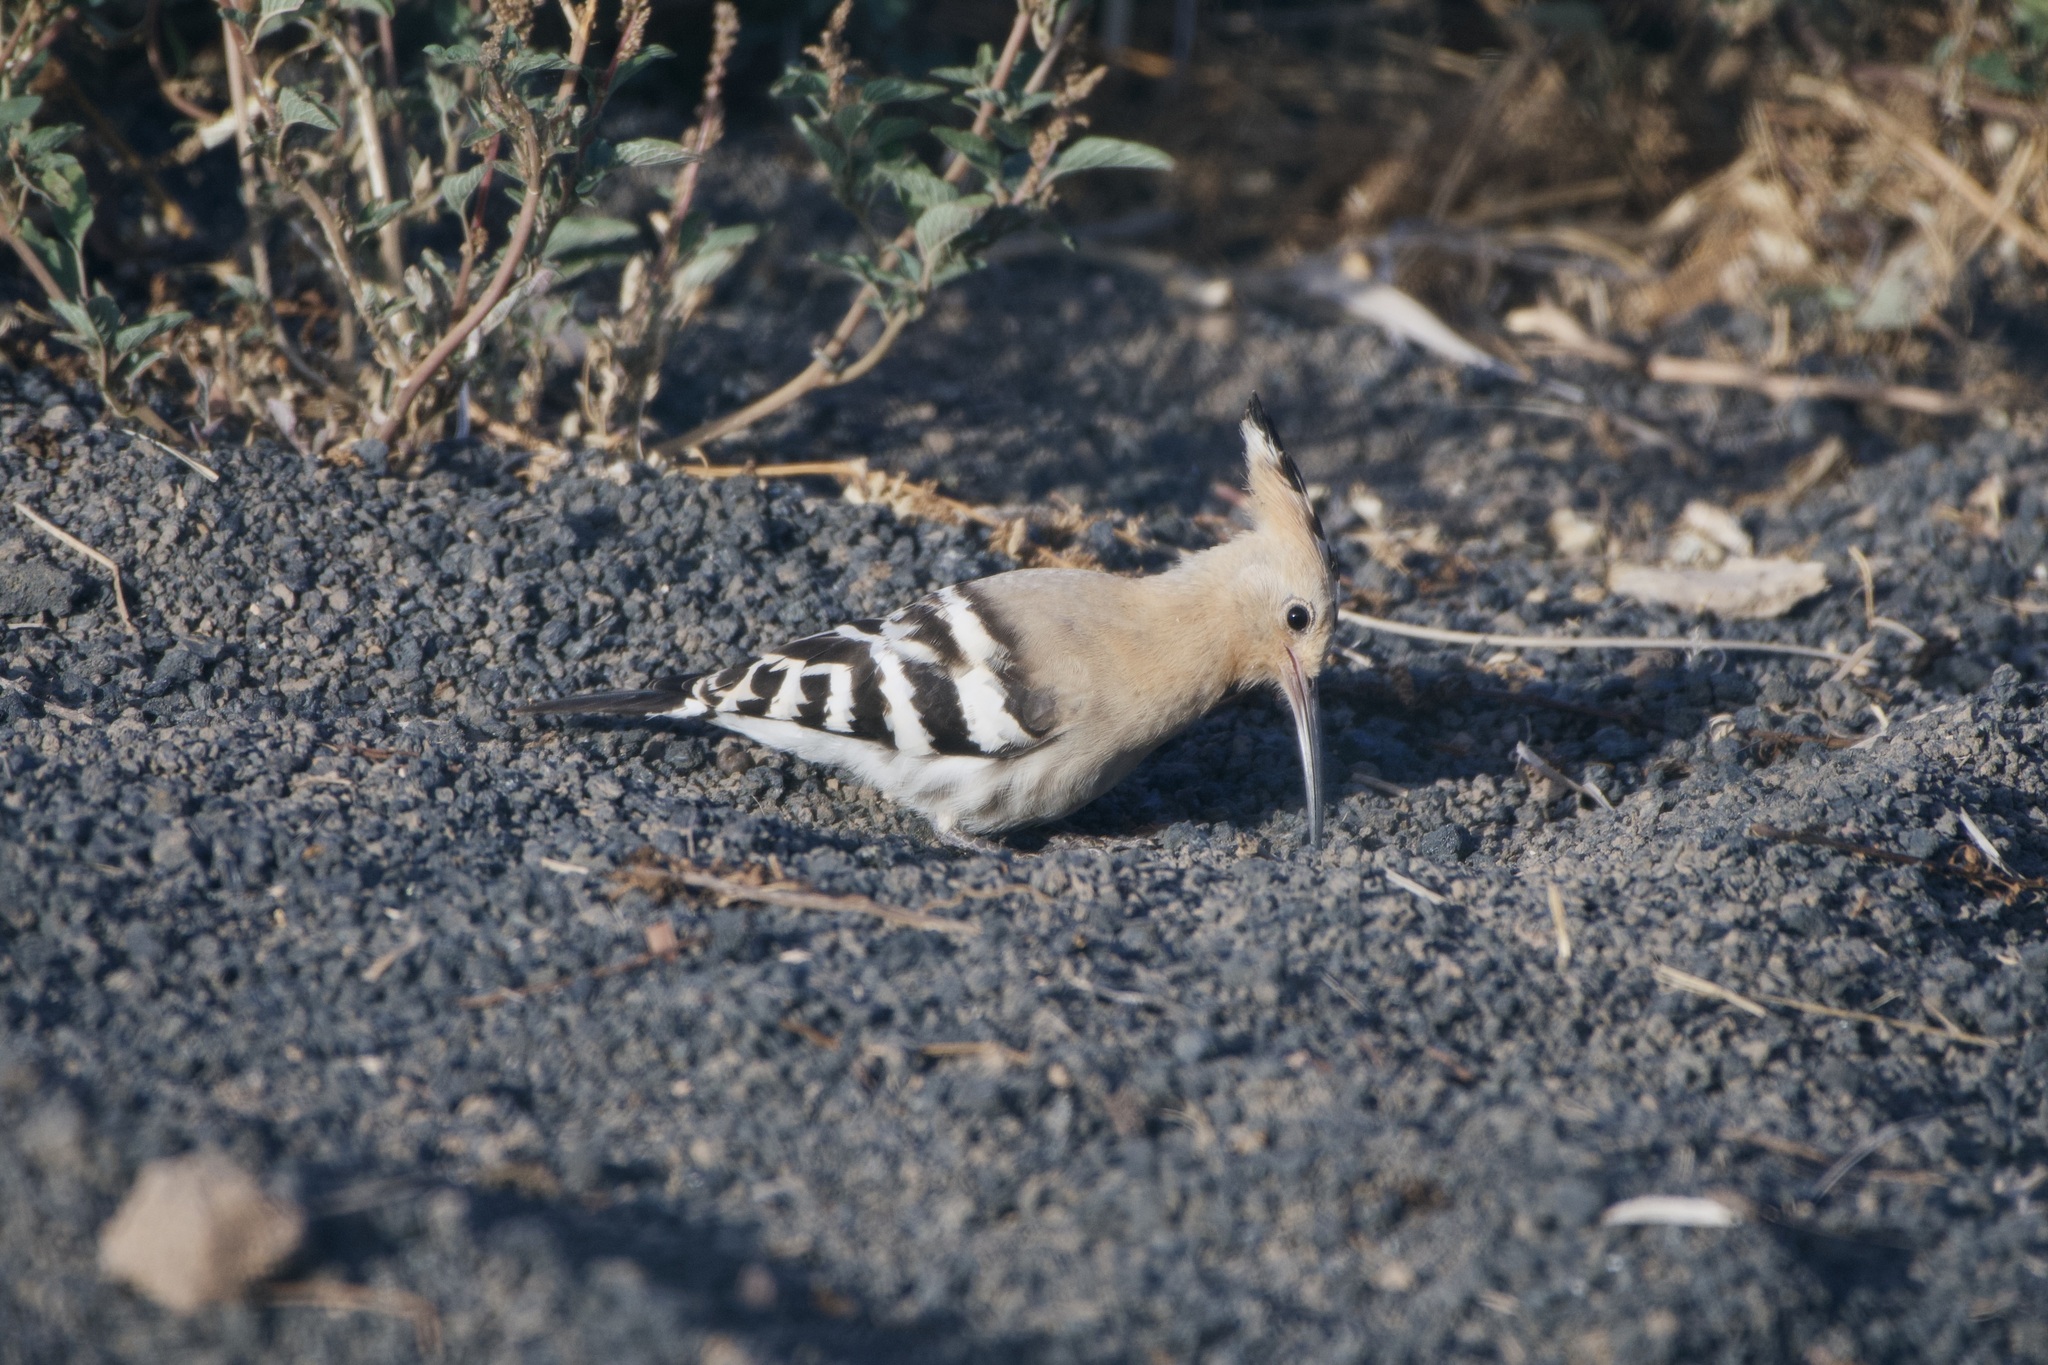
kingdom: Animalia
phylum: Chordata
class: Aves
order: Bucerotiformes
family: Upupidae
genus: Upupa
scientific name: Upupa epops
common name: Eurasian hoopoe
